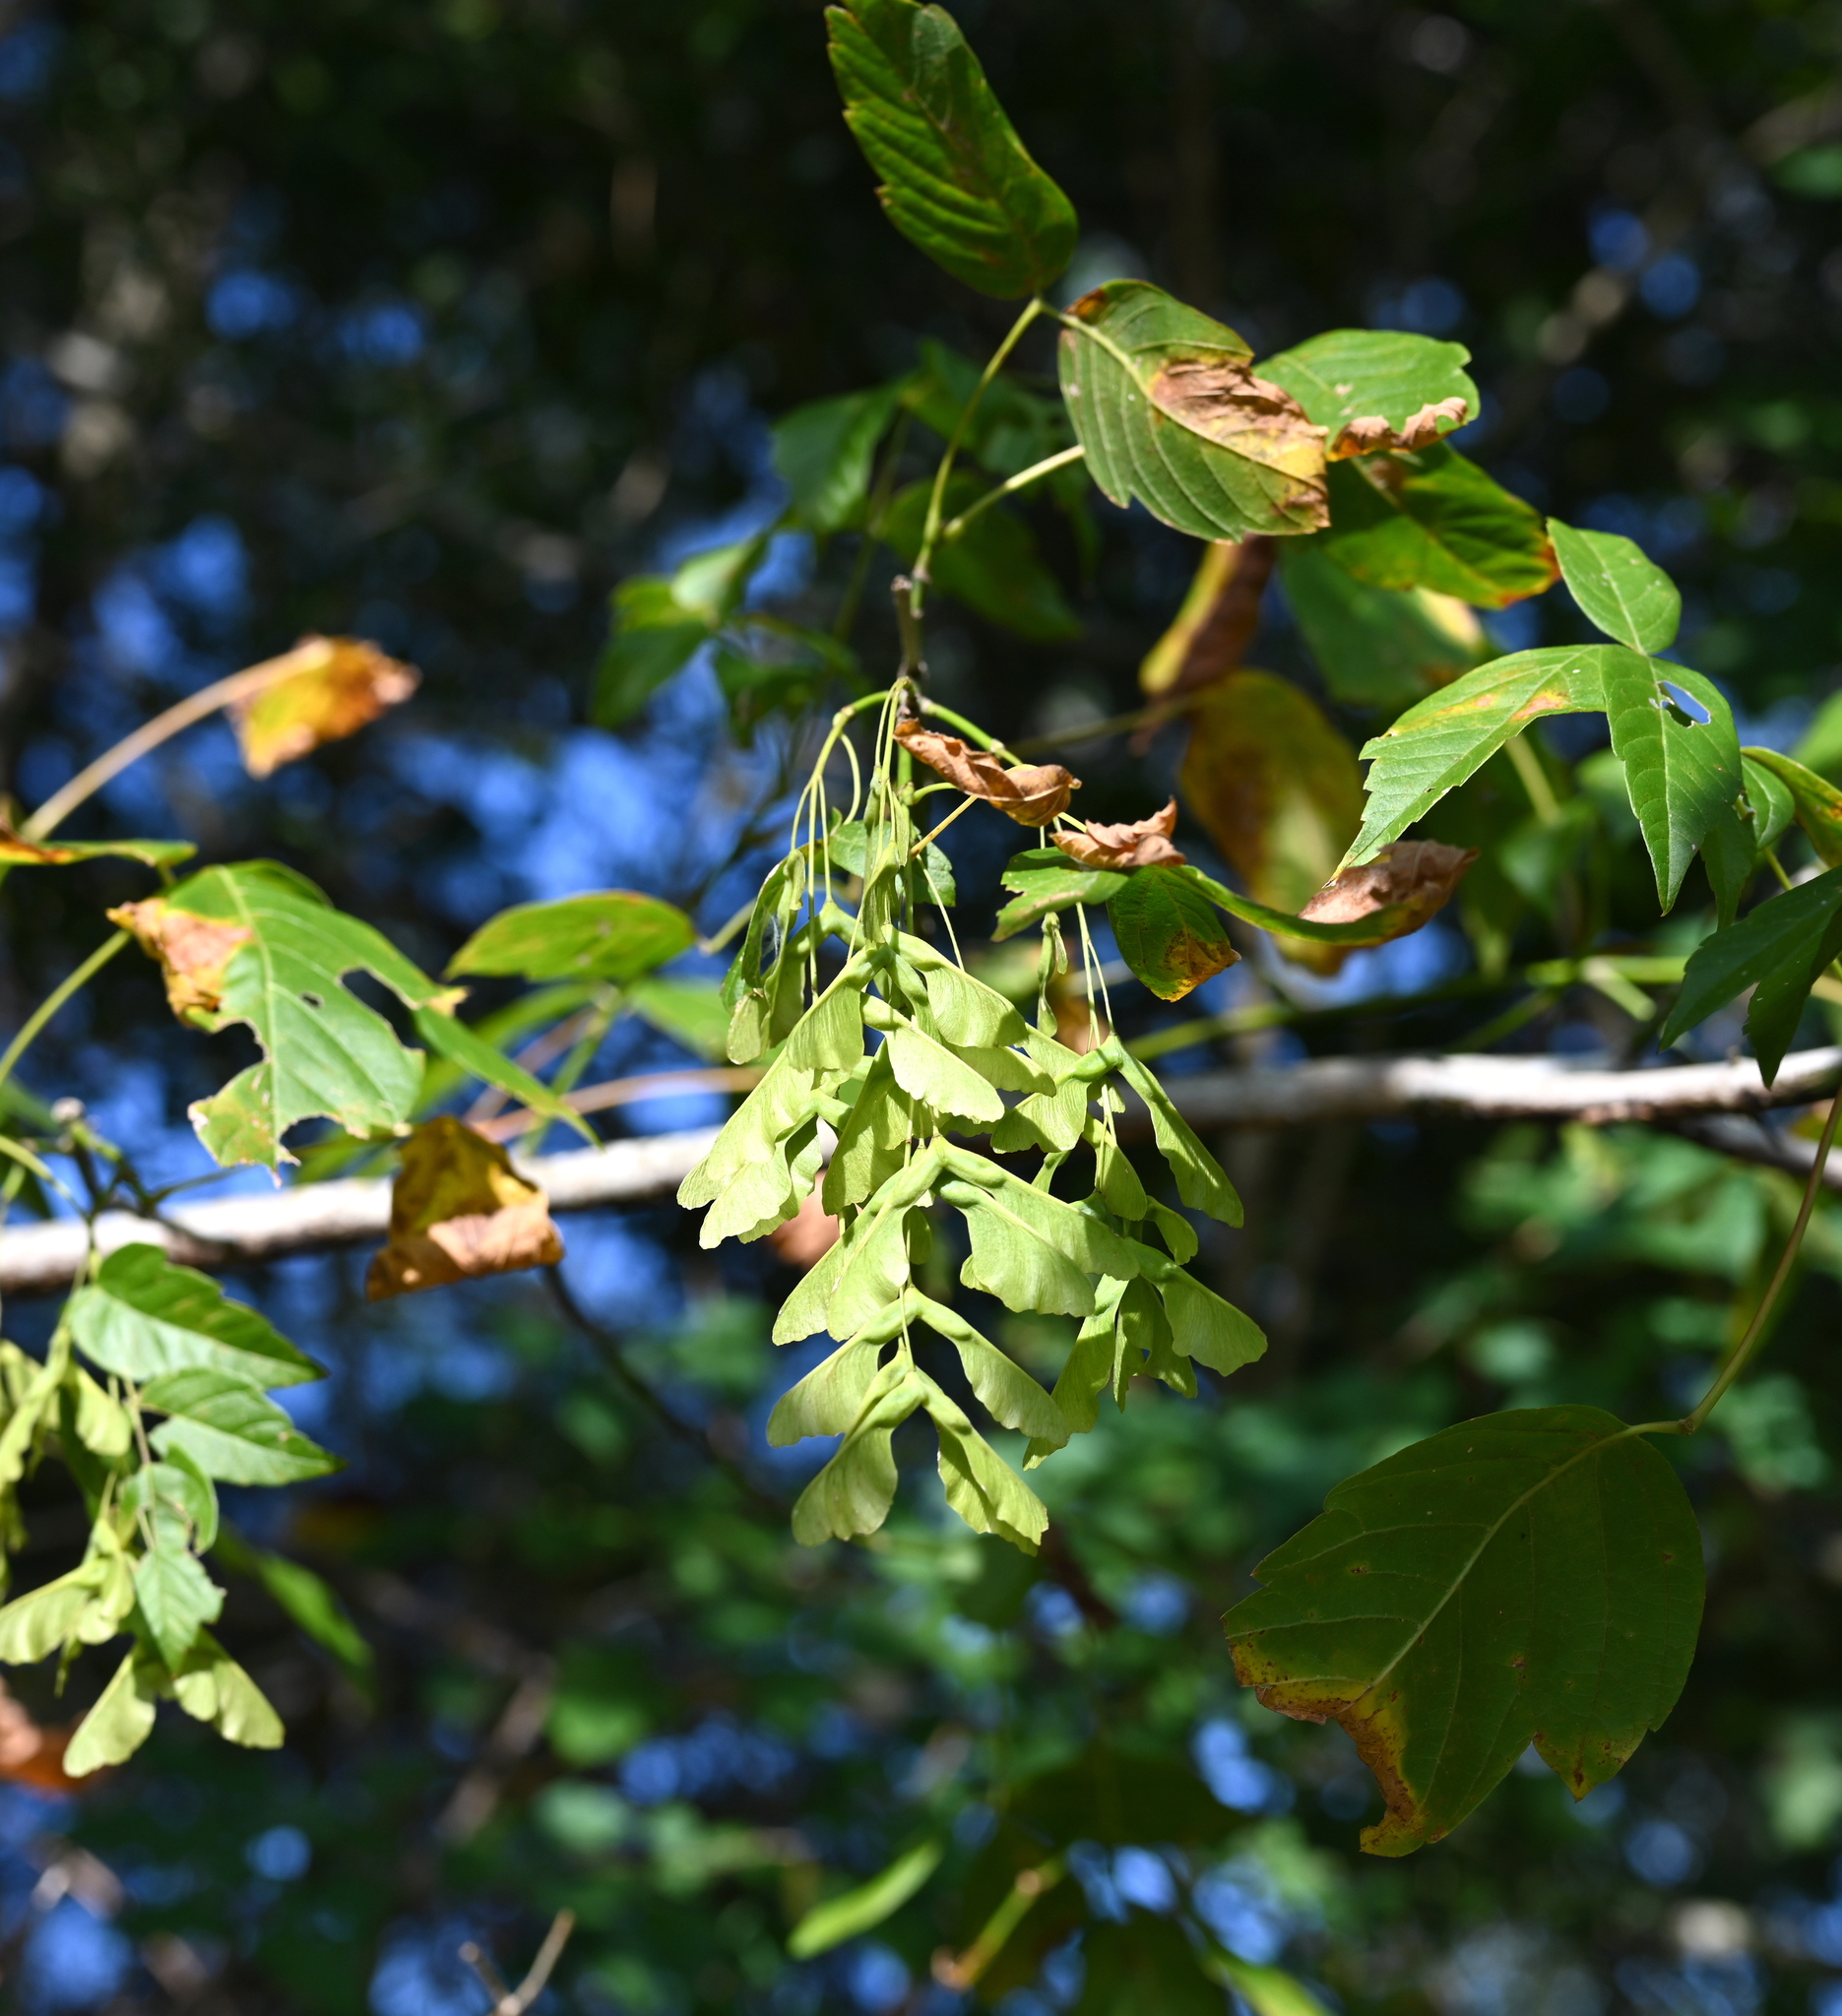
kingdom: Plantae
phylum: Tracheophyta
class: Magnoliopsida
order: Sapindales
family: Sapindaceae
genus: Acer
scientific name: Acer negundo
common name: Ashleaf maple
